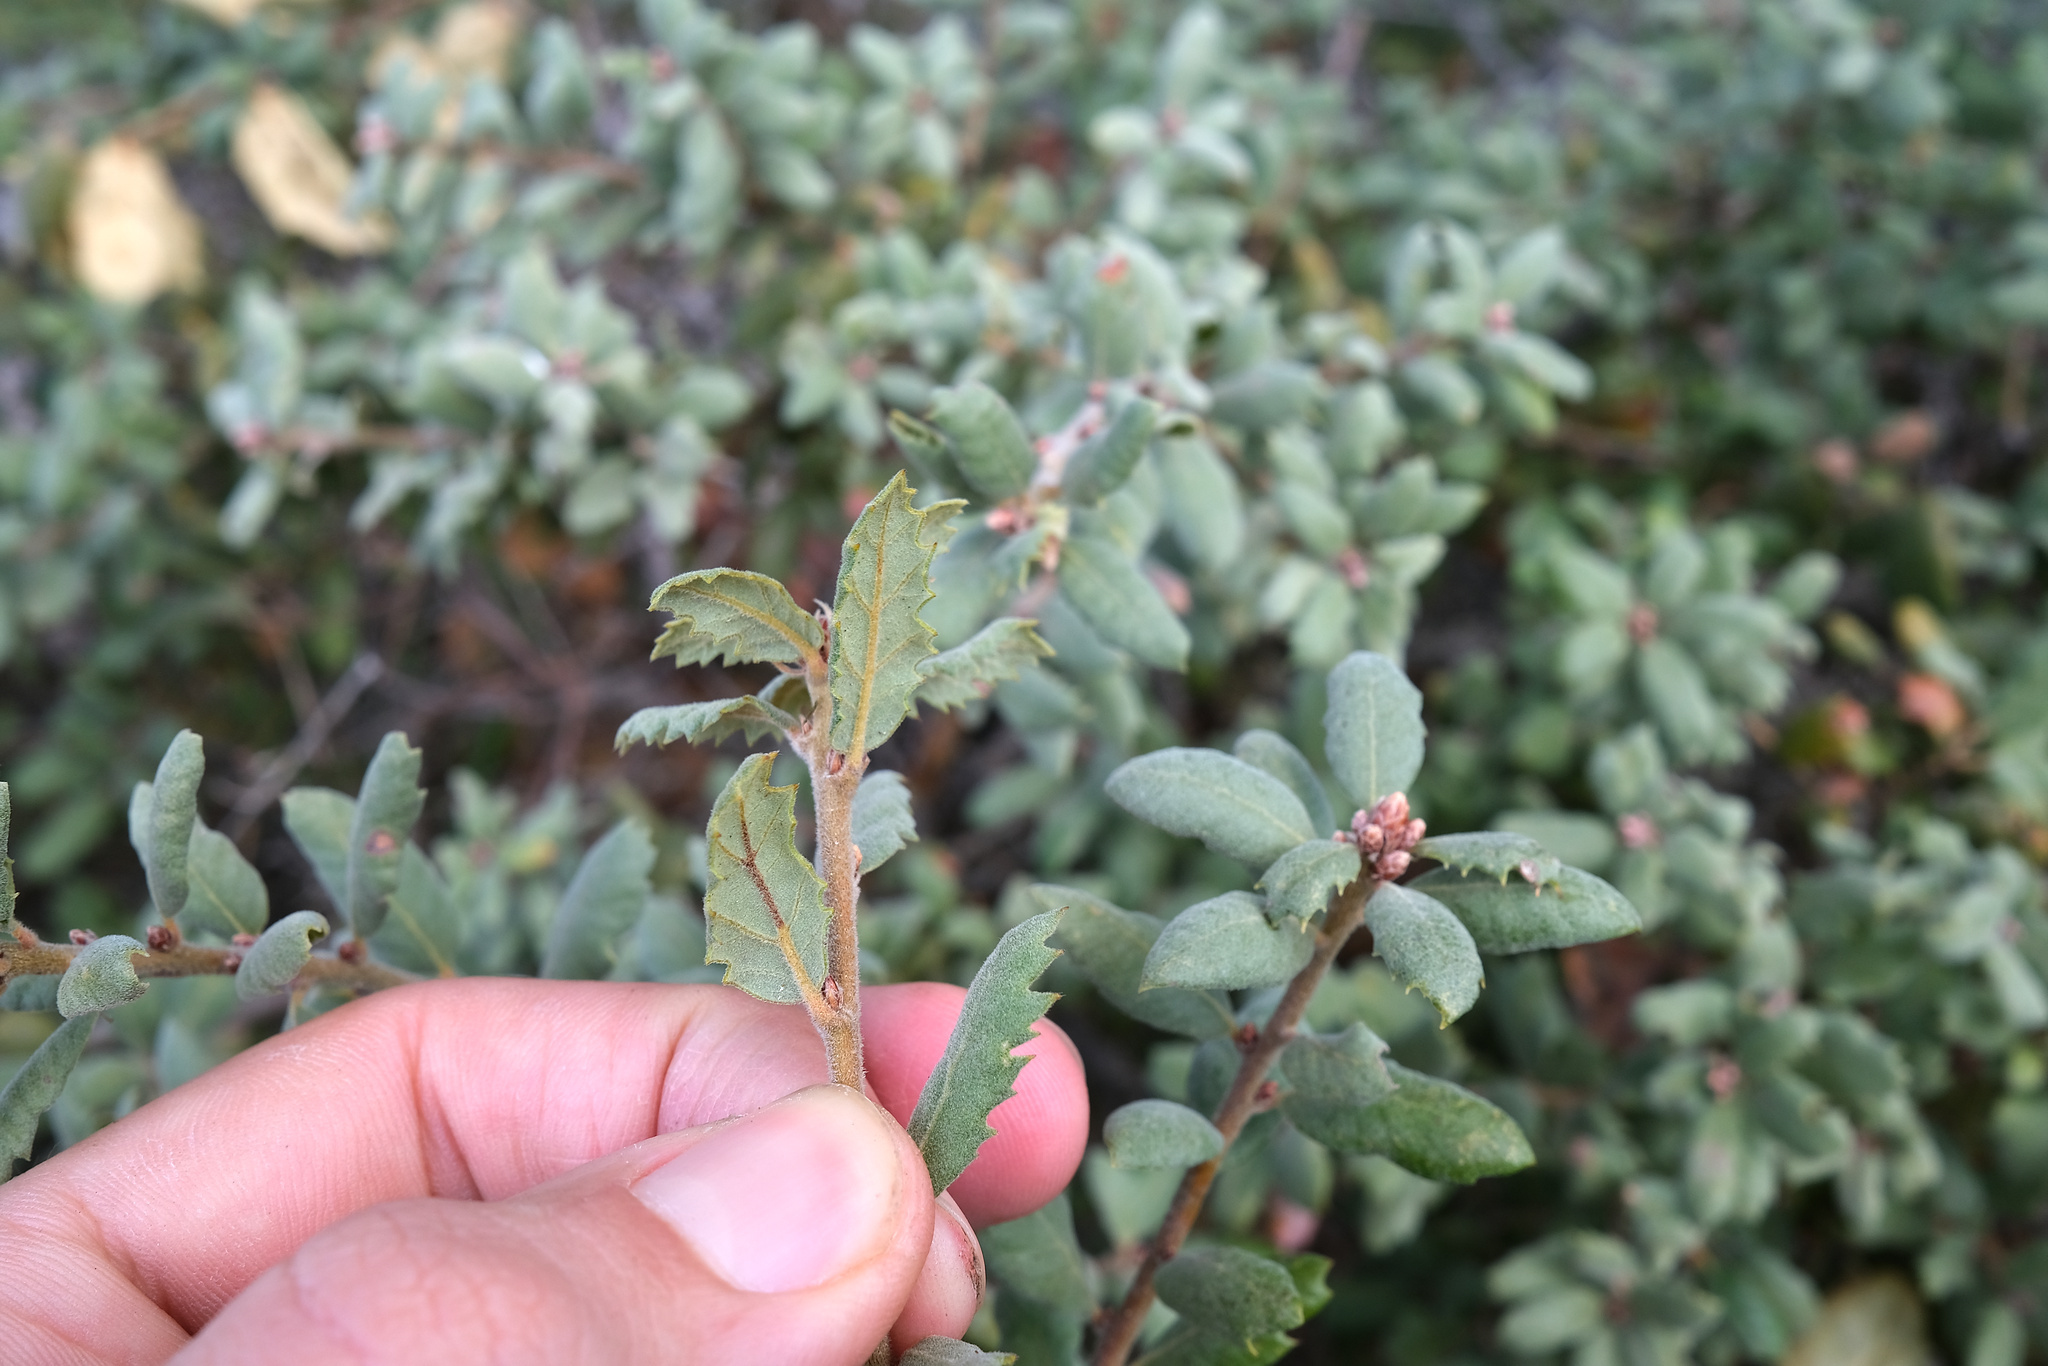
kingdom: Plantae
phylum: Tracheophyta
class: Magnoliopsida
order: Fagales
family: Fagaceae
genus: Quercus
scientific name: Quercus durata
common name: Leather oak
